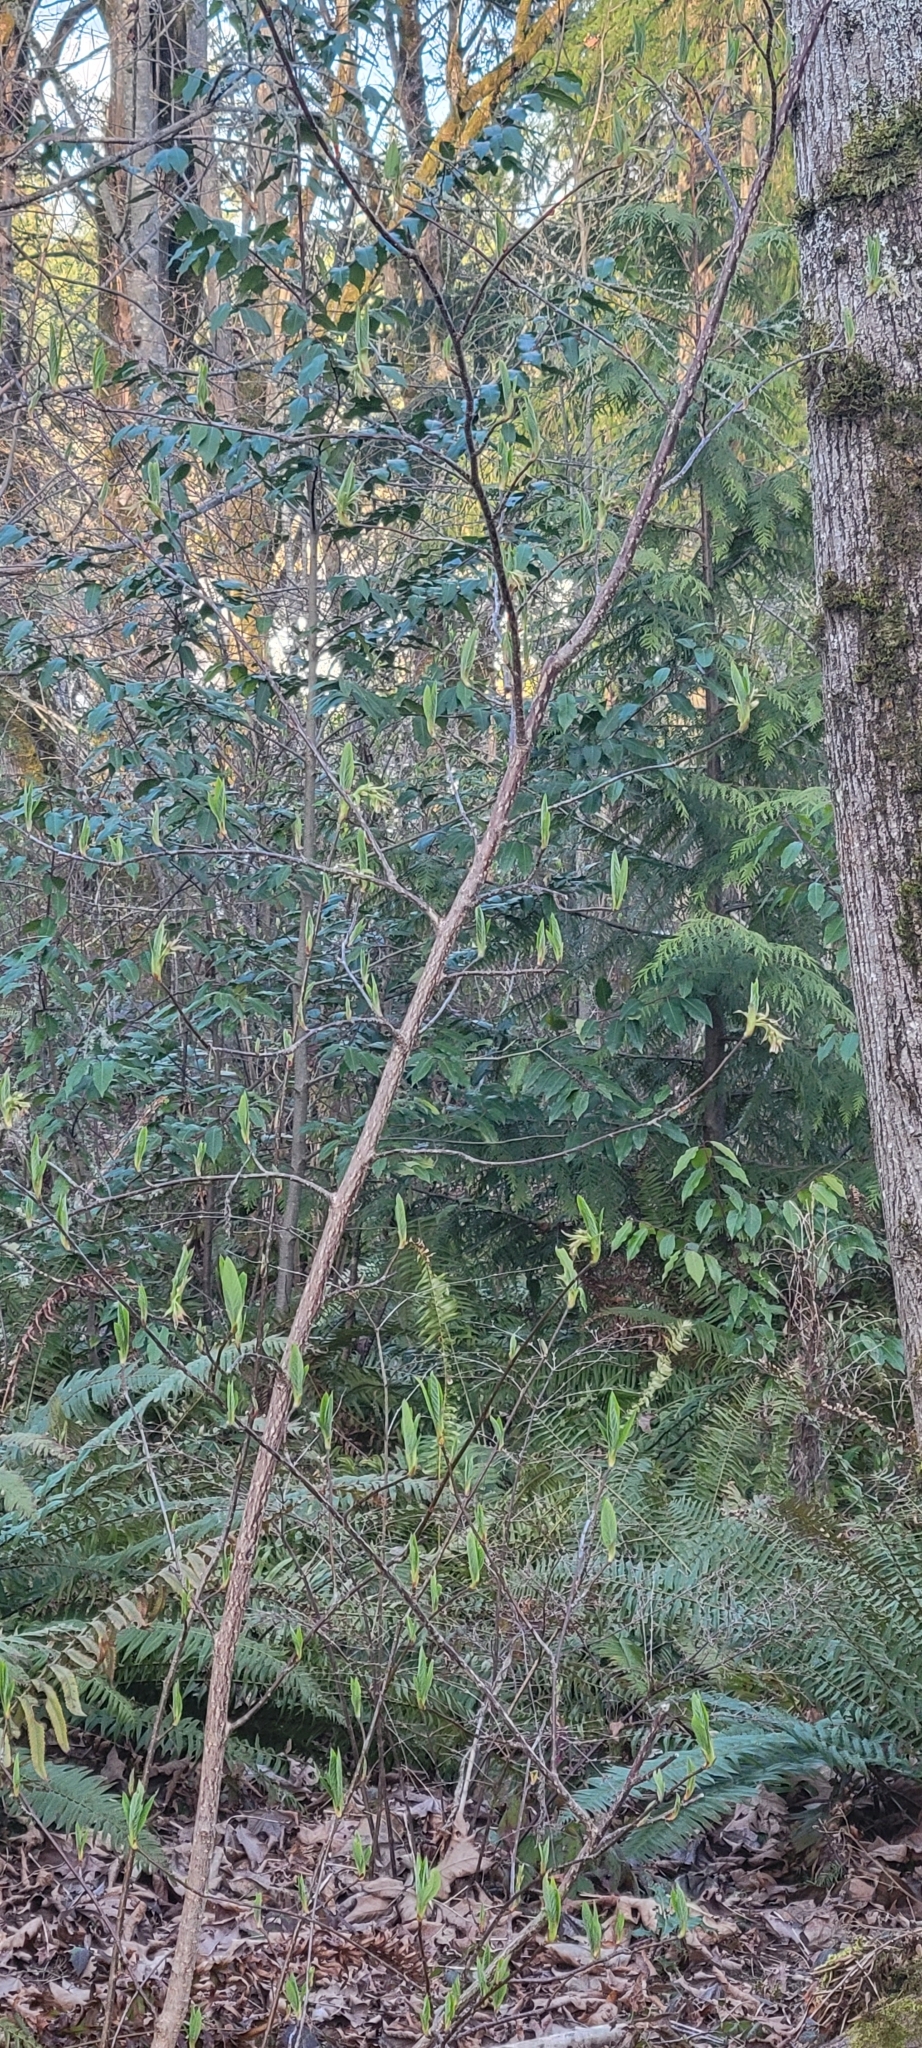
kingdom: Plantae
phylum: Tracheophyta
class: Magnoliopsida
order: Rosales
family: Rosaceae
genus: Oemleria
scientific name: Oemleria cerasiformis
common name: Osoberry
